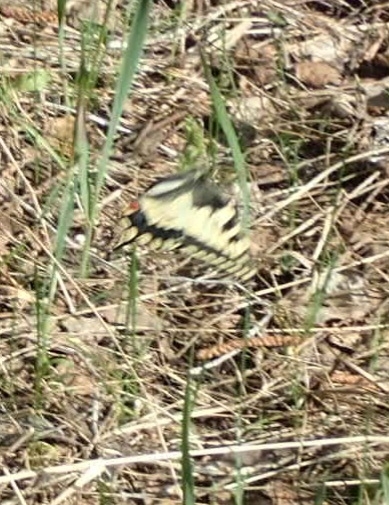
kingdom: Animalia
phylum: Arthropoda
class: Insecta
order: Lepidoptera
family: Papilionidae
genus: Papilio
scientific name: Papilio machaon
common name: Swallowtail
